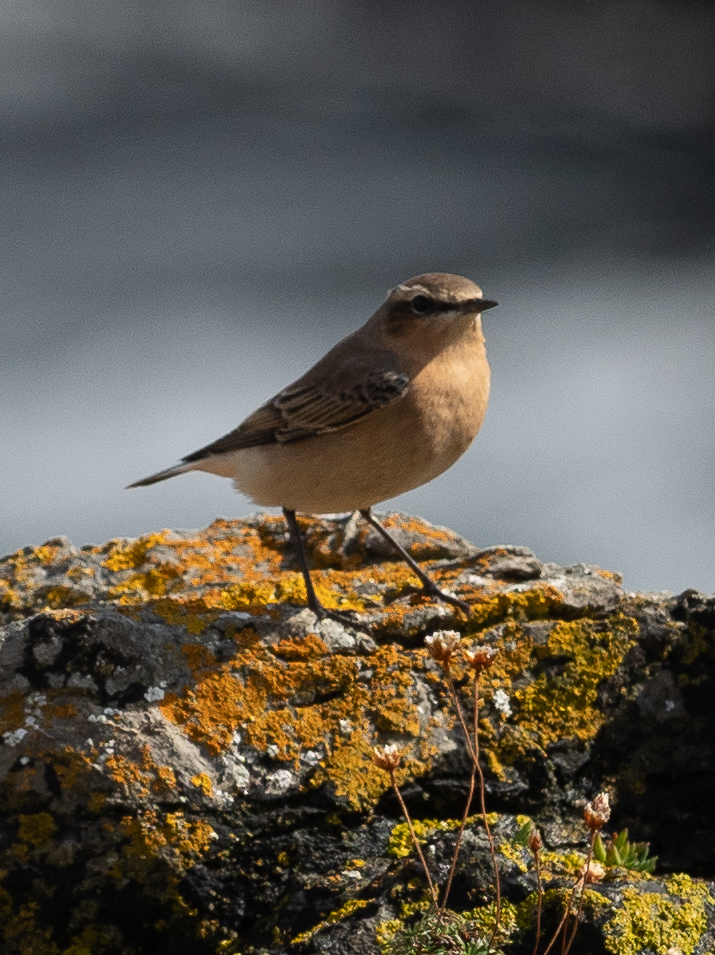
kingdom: Animalia
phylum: Chordata
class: Aves
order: Passeriformes
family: Muscicapidae
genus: Oenanthe
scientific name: Oenanthe oenanthe
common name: Northern wheatear
